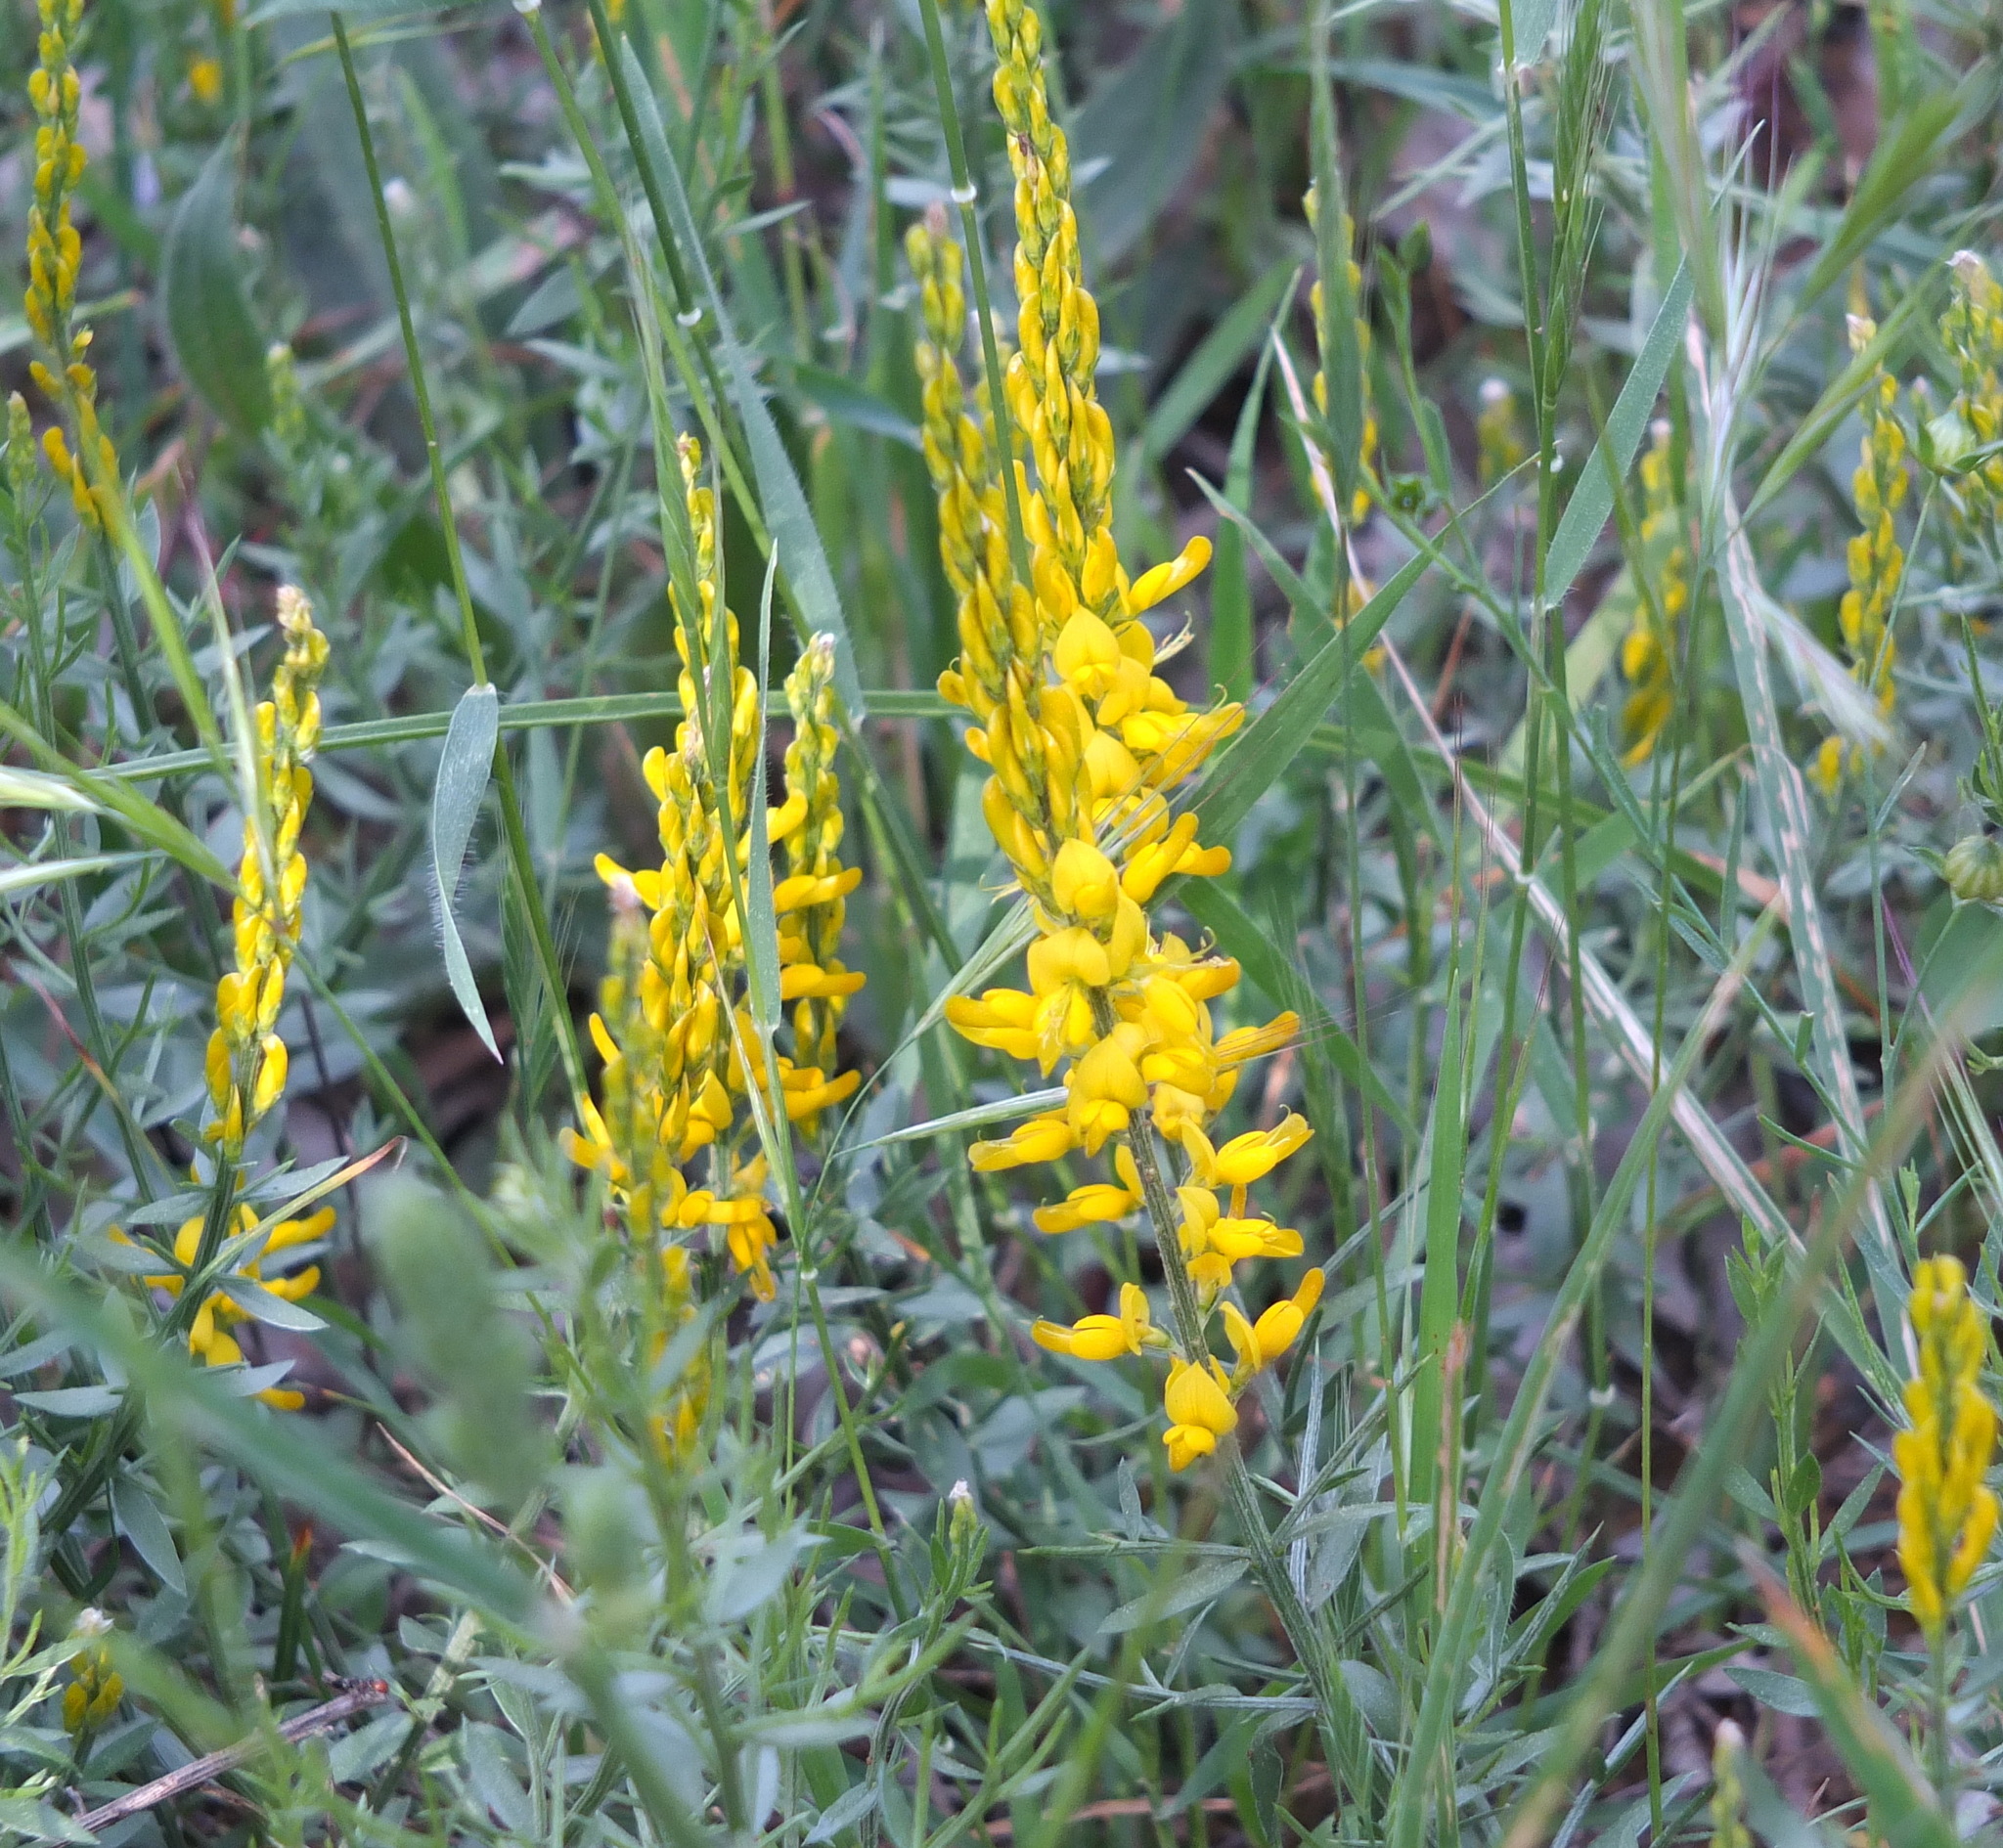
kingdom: Plantae
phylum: Tracheophyta
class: Magnoliopsida
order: Fabales
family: Fabaceae
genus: Genista
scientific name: Genista tricuspidata
